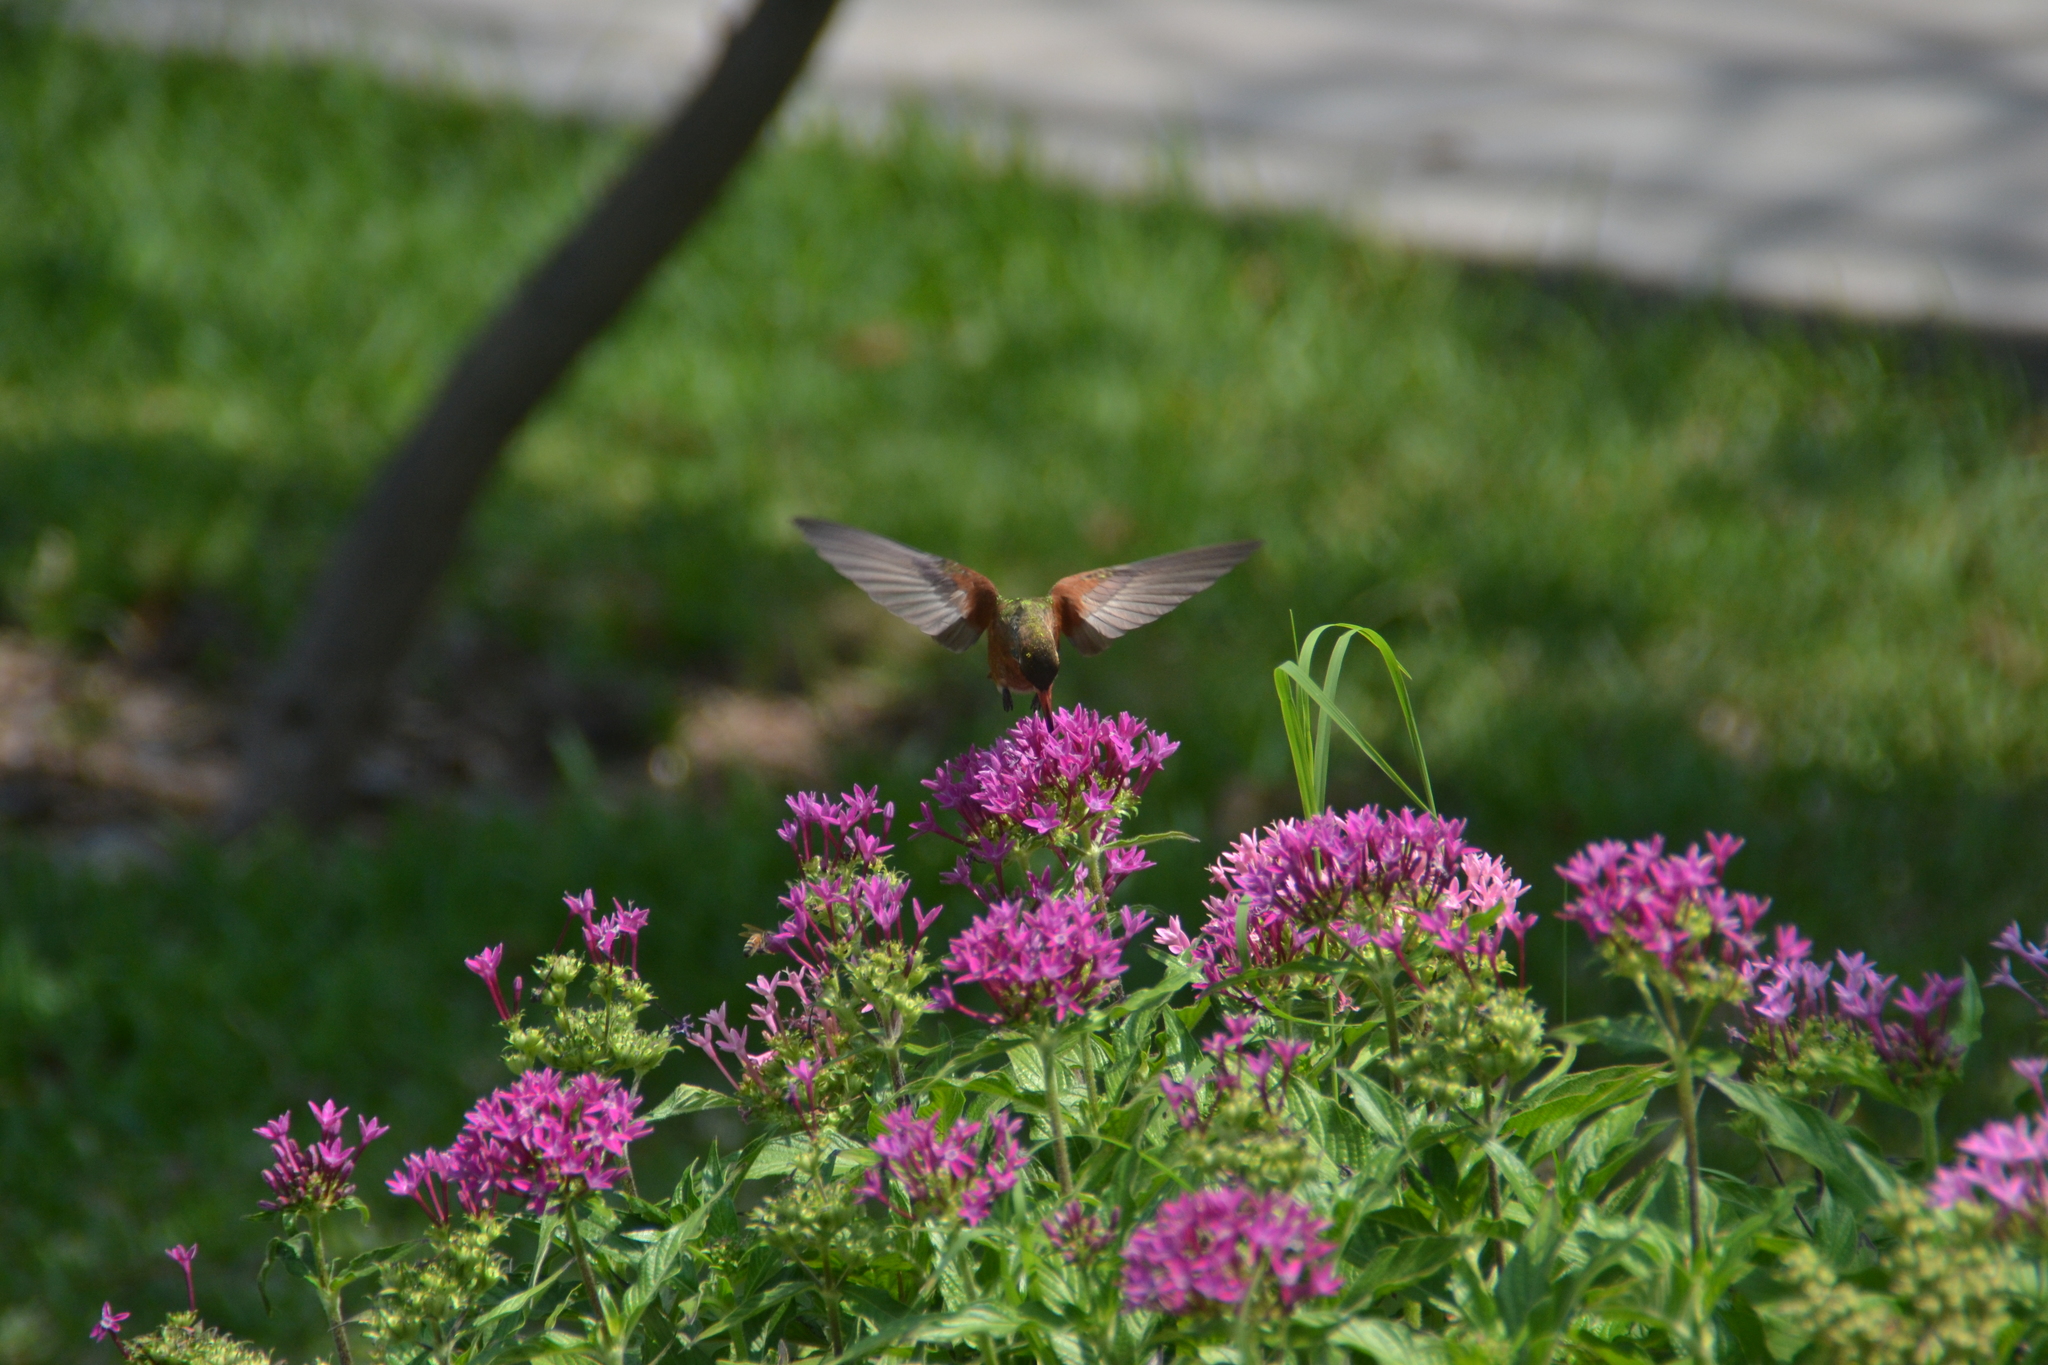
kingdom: Animalia
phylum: Chordata
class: Aves
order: Apodiformes
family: Trochilidae
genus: Amazilis
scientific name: Amazilis amazilia
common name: Amazilia hummingbird
